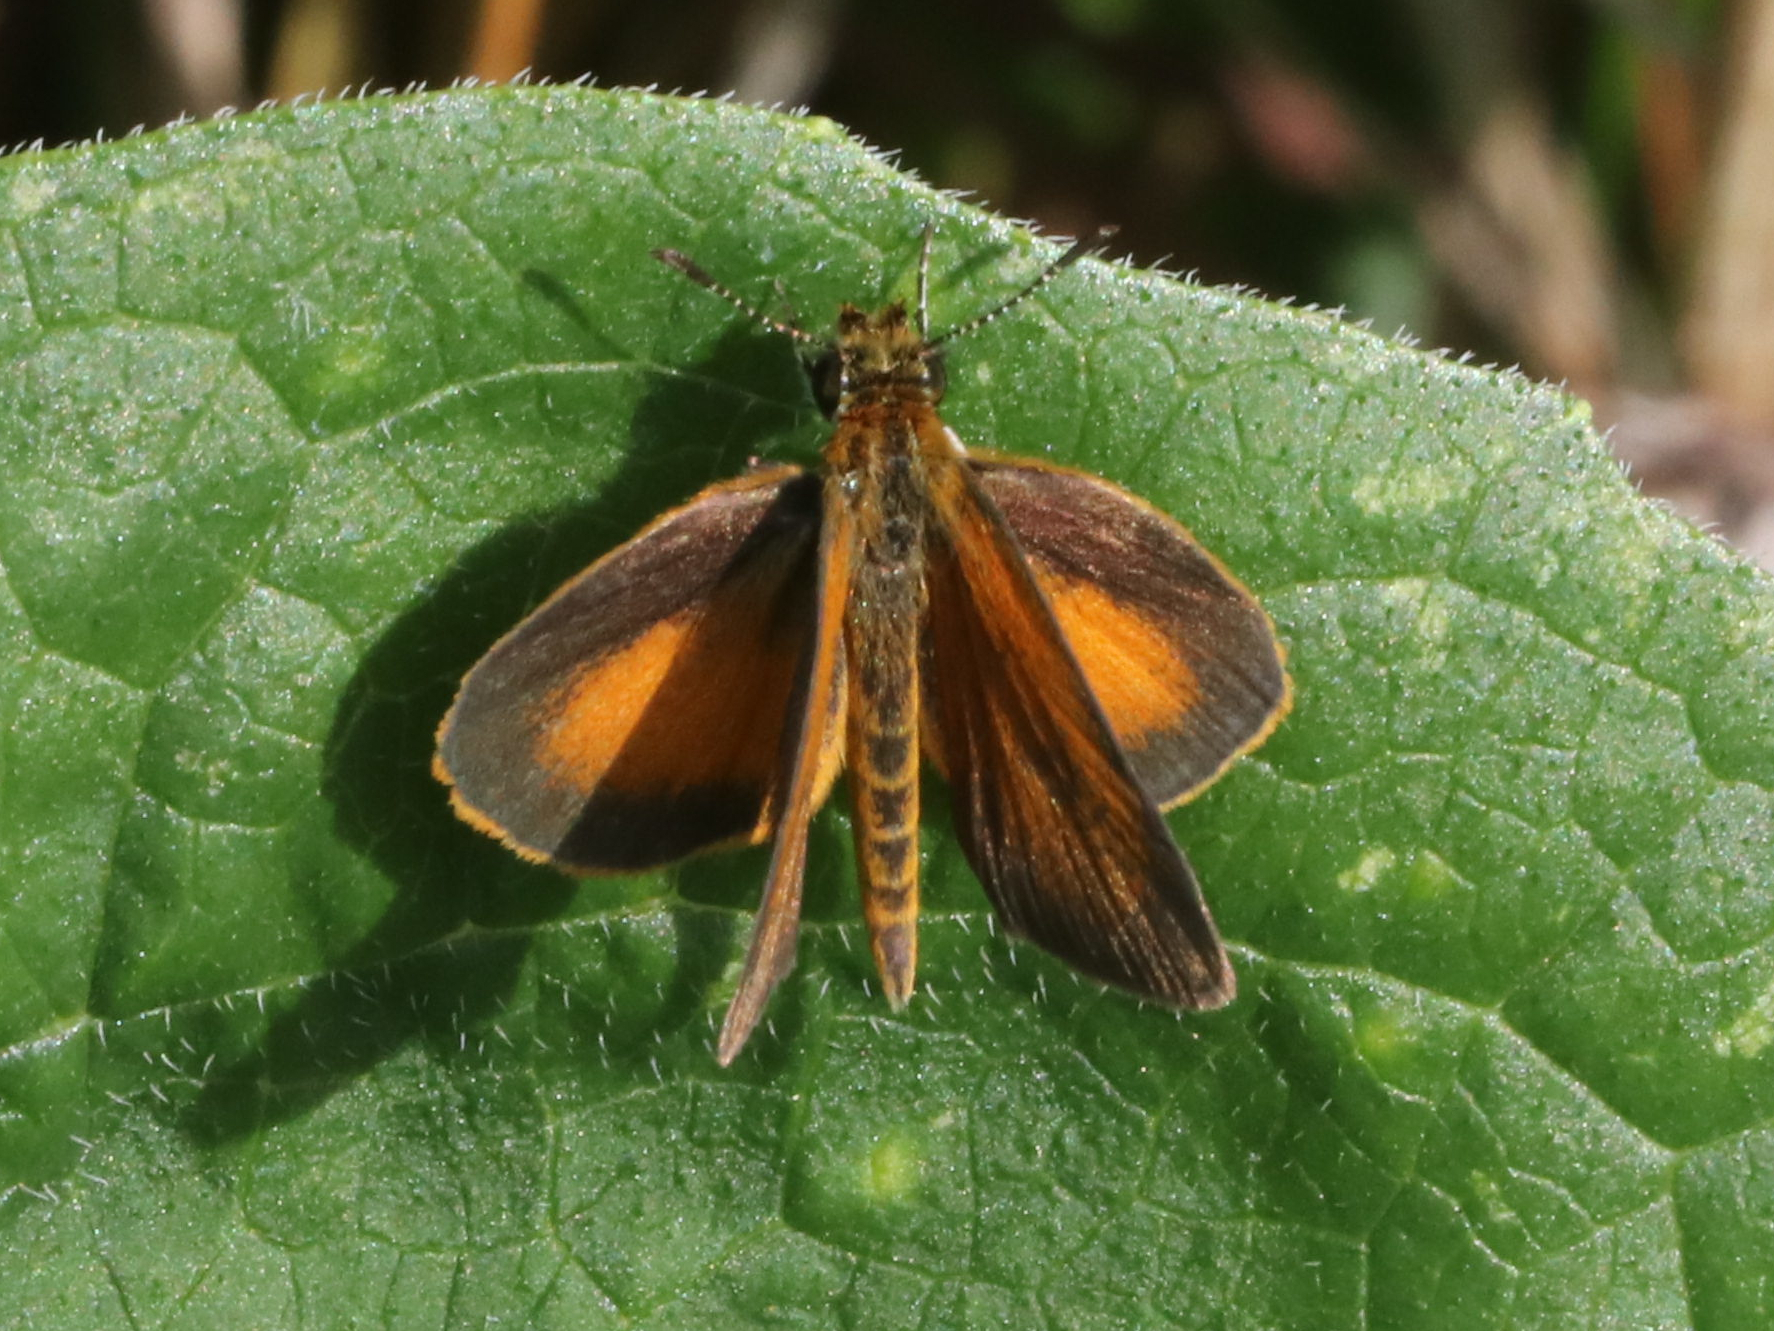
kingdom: Animalia
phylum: Arthropoda
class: Insecta
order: Lepidoptera
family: Hesperiidae
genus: Ancyloxypha
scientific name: Ancyloxypha numitor
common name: Least skipper
